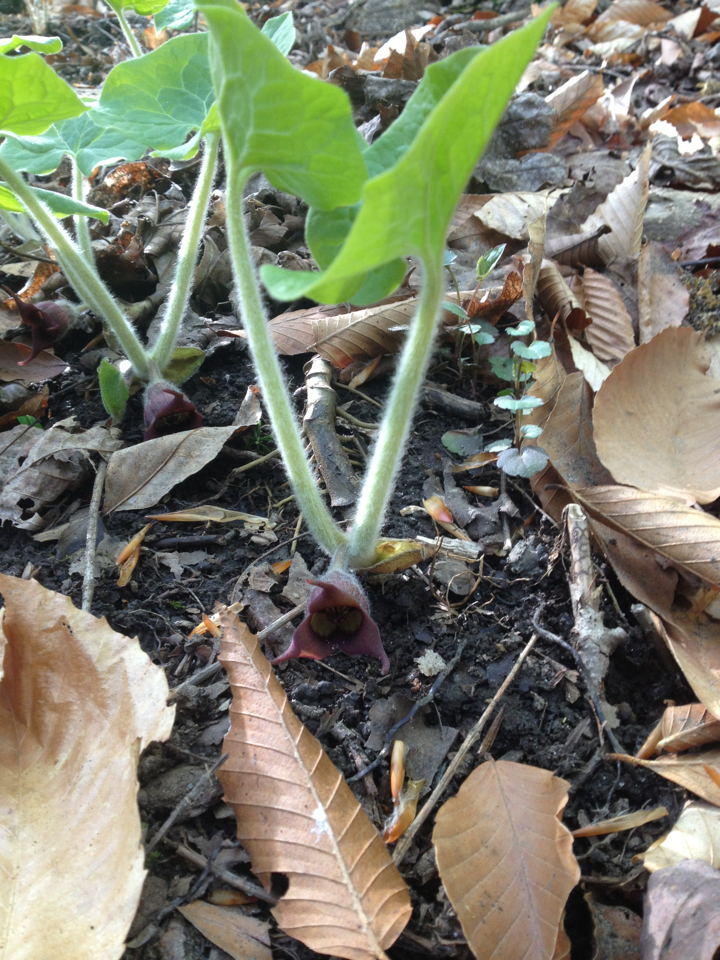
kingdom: Plantae
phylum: Tracheophyta
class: Magnoliopsida
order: Piperales
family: Aristolochiaceae
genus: Asarum
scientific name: Asarum canadense
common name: Wild ginger
